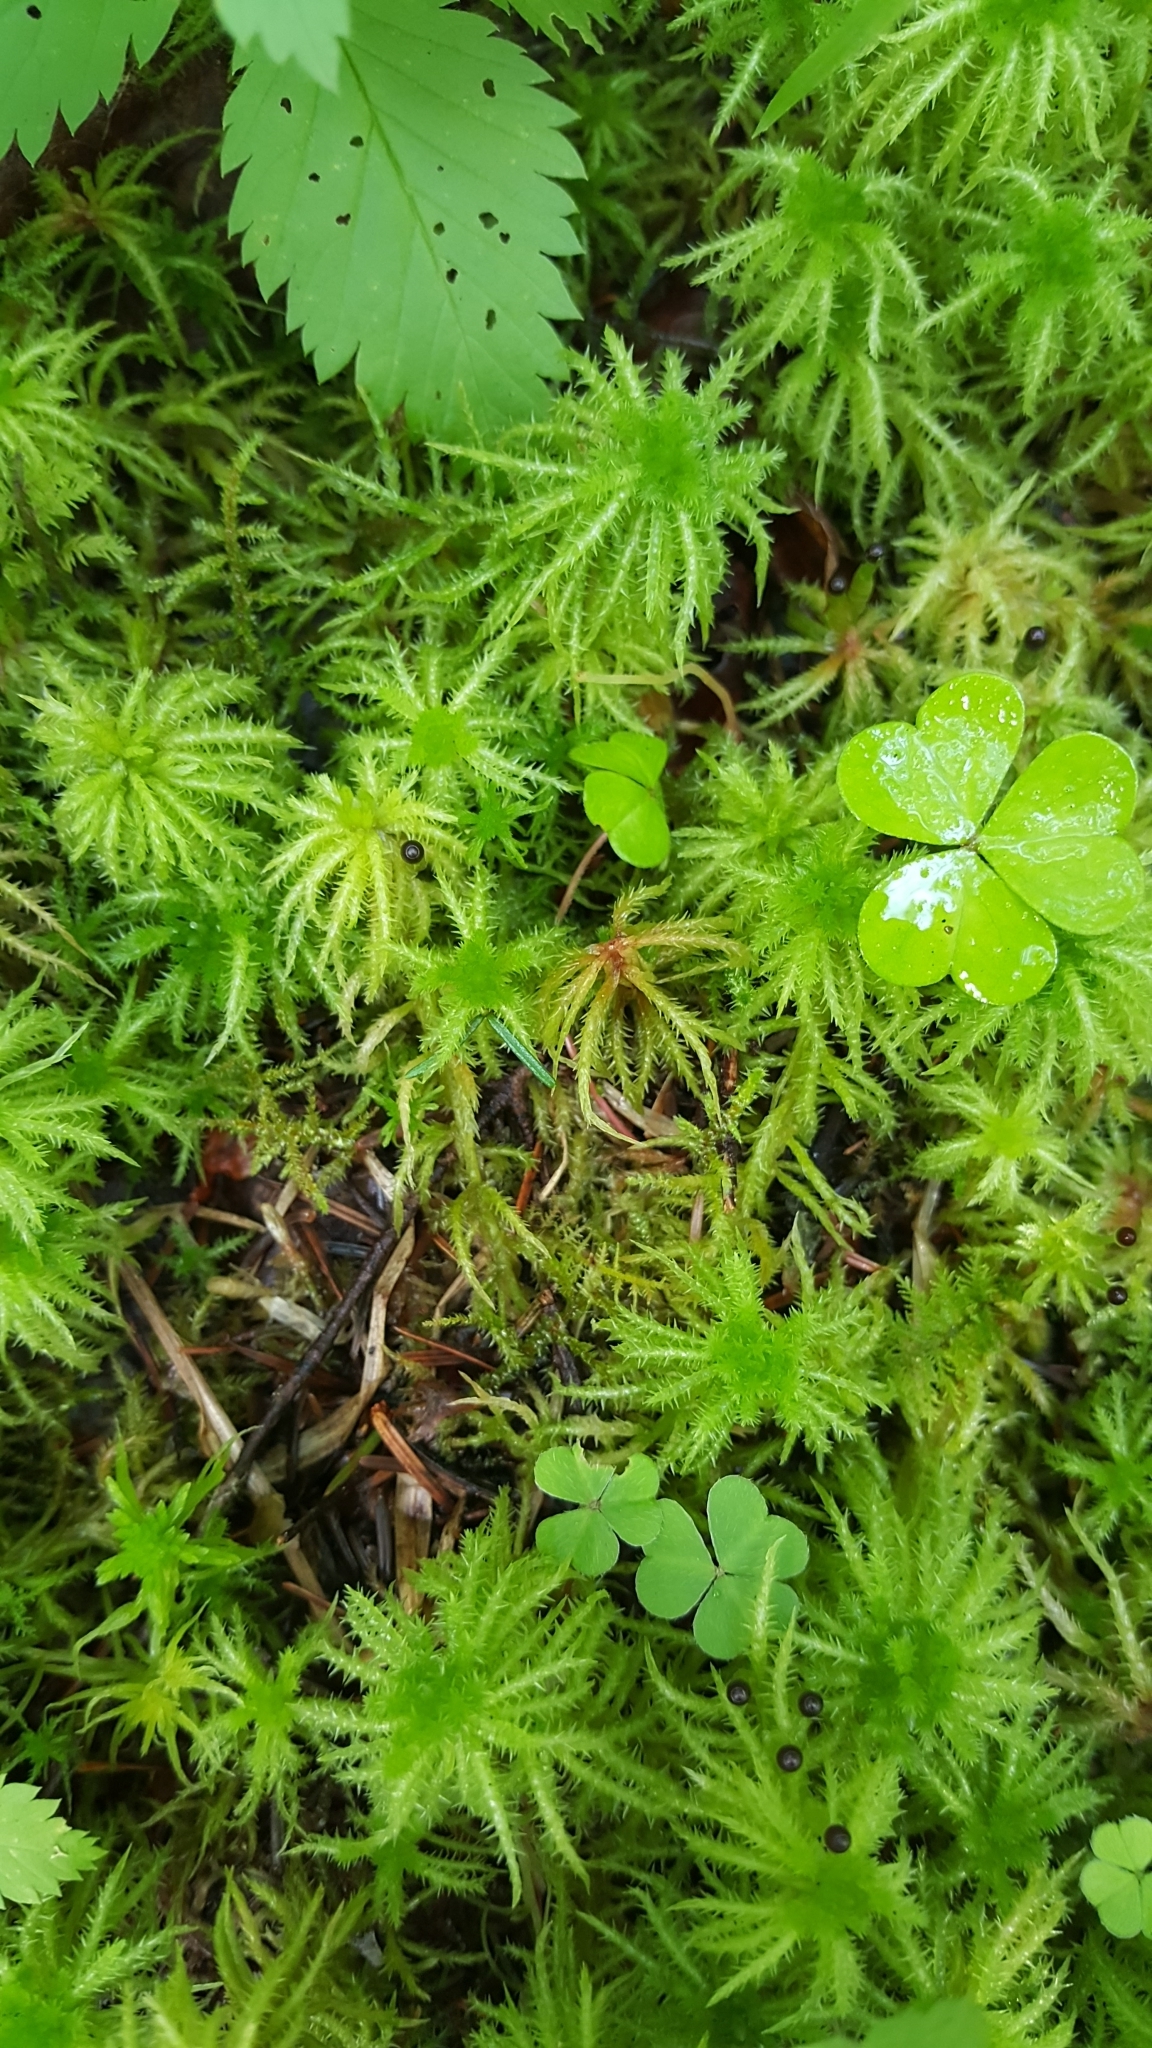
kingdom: Plantae
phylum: Bryophyta
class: Sphagnopsida
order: Sphagnales
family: Sphagnaceae
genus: Sphagnum
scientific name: Sphagnum squarrosum
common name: Shaggy peat moss
